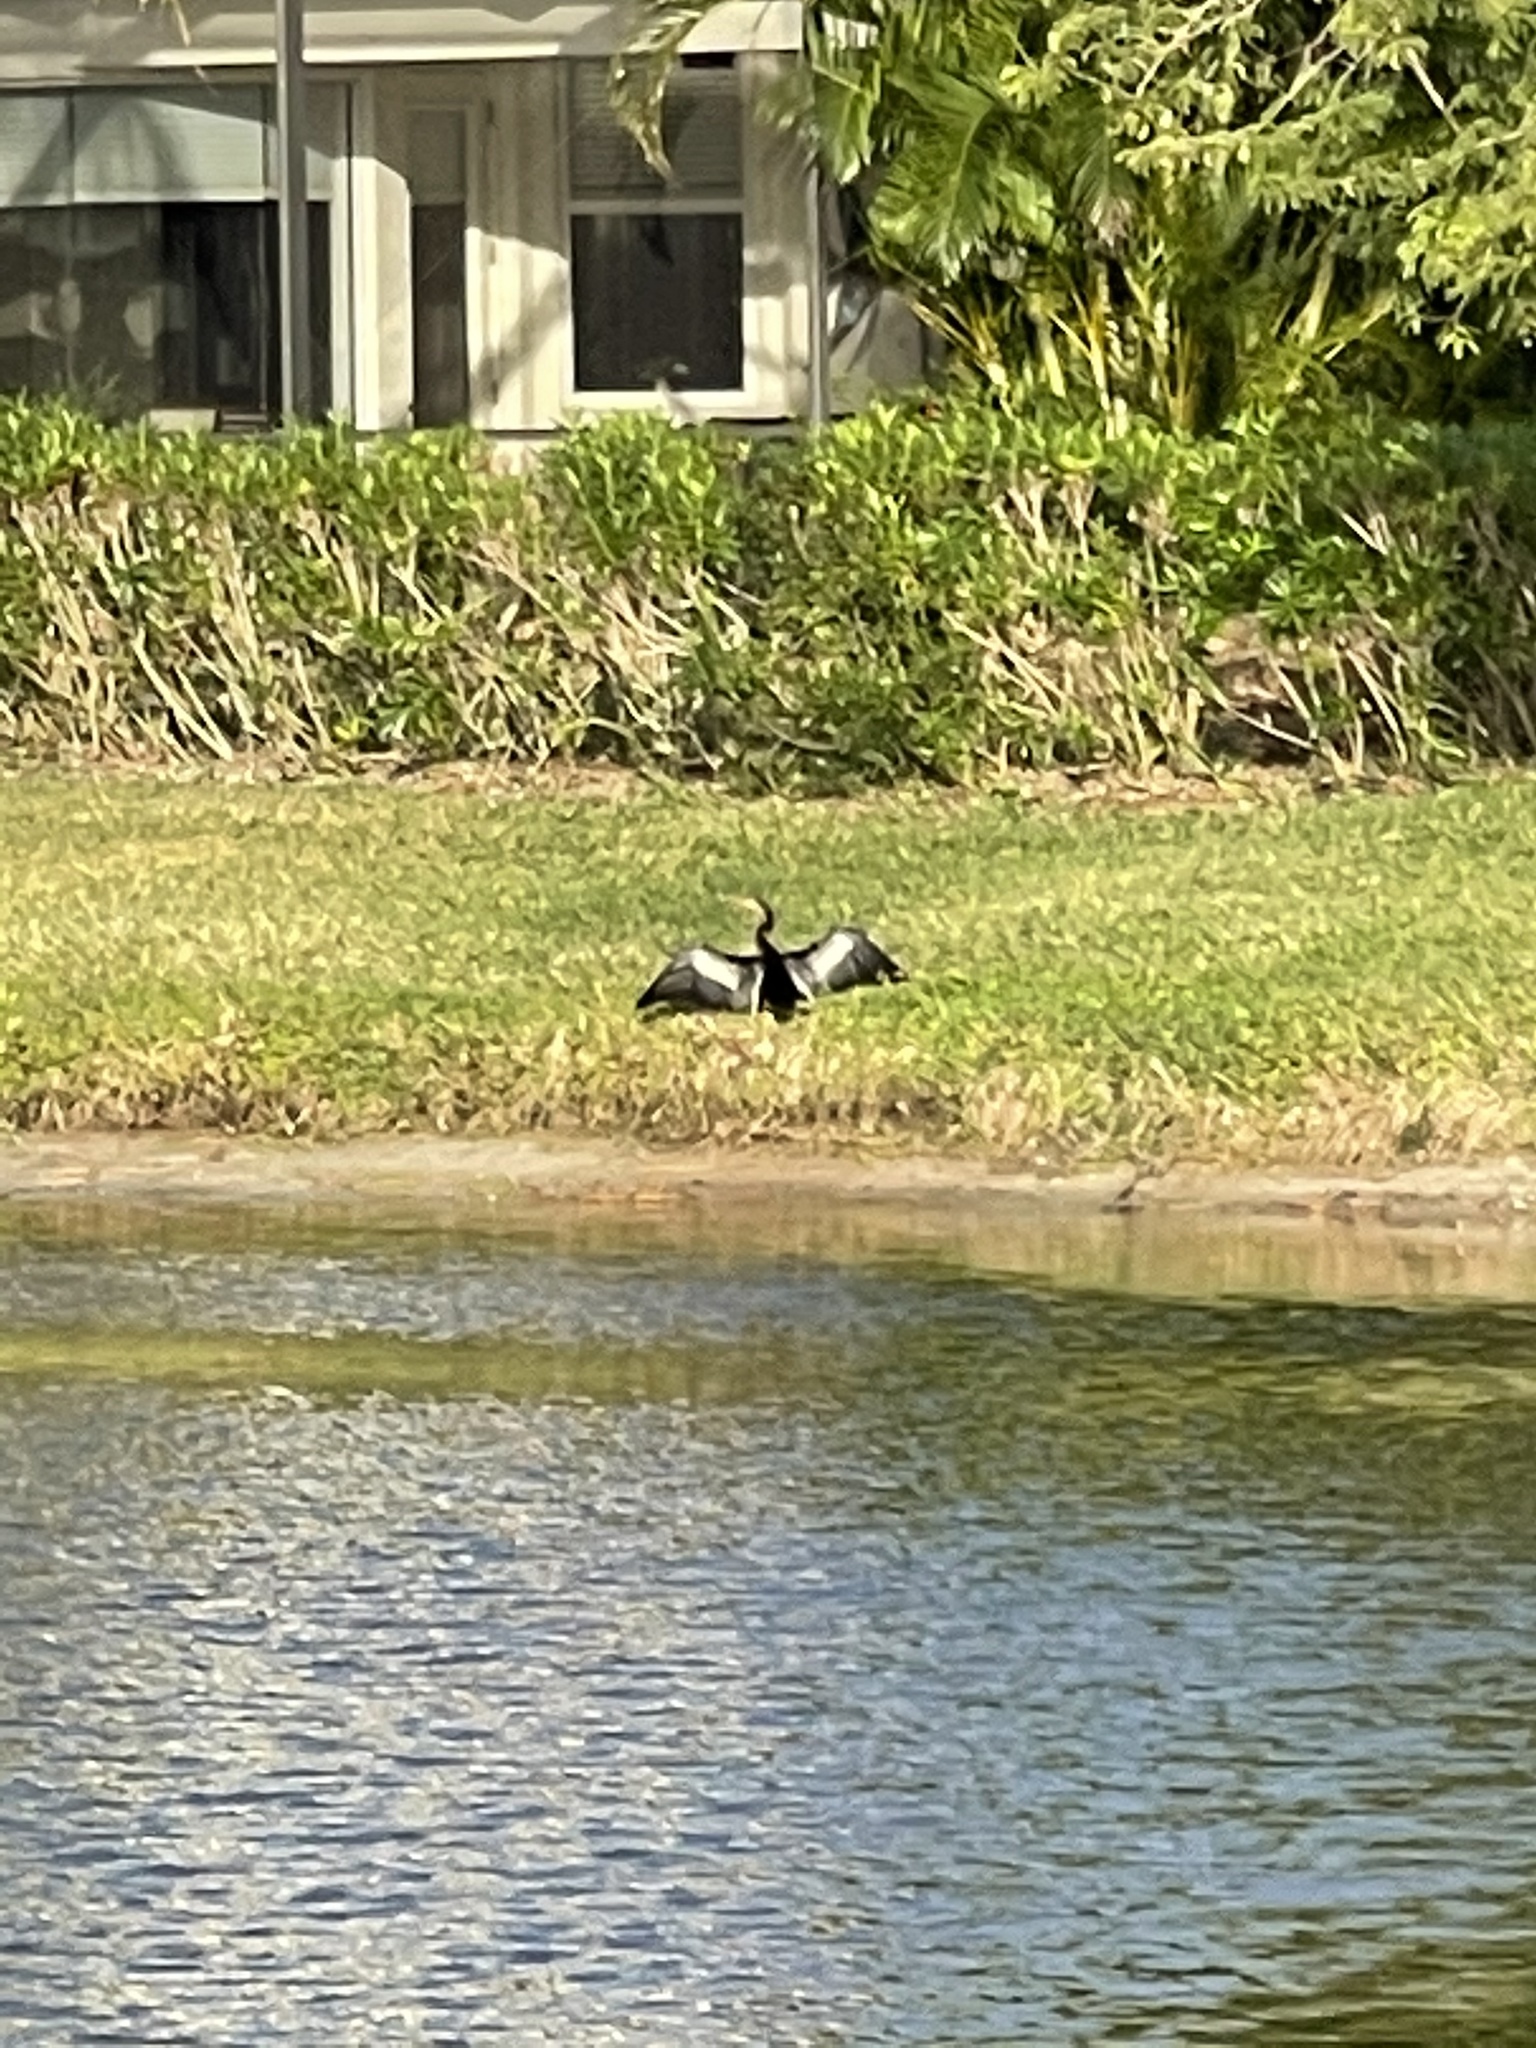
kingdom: Animalia
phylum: Chordata
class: Aves
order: Suliformes
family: Anhingidae
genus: Anhinga
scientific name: Anhinga anhinga
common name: Anhinga
